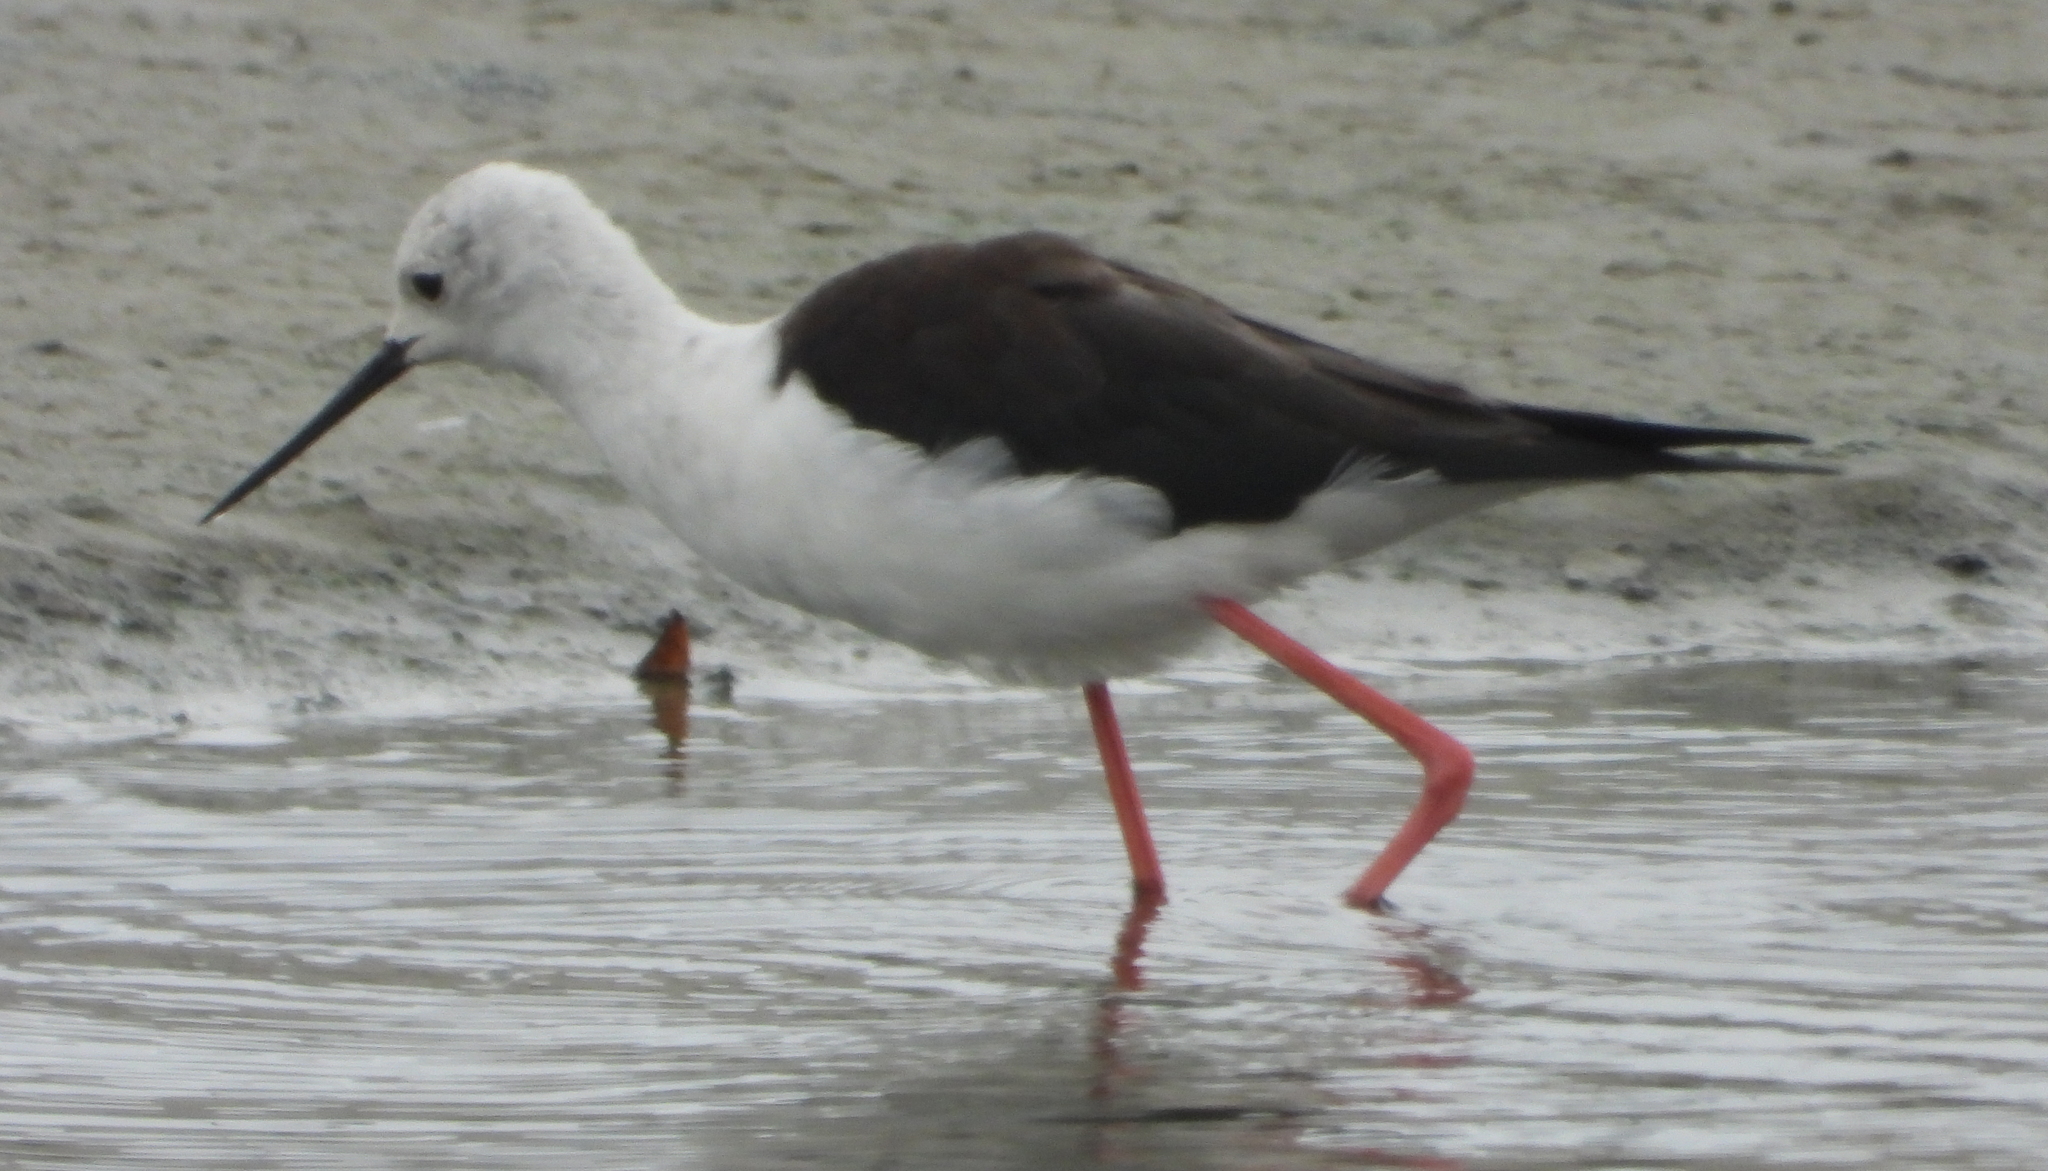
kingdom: Animalia
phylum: Chordata
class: Aves
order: Charadriiformes
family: Recurvirostridae
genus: Himantopus
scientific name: Himantopus himantopus
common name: Black-winged stilt
